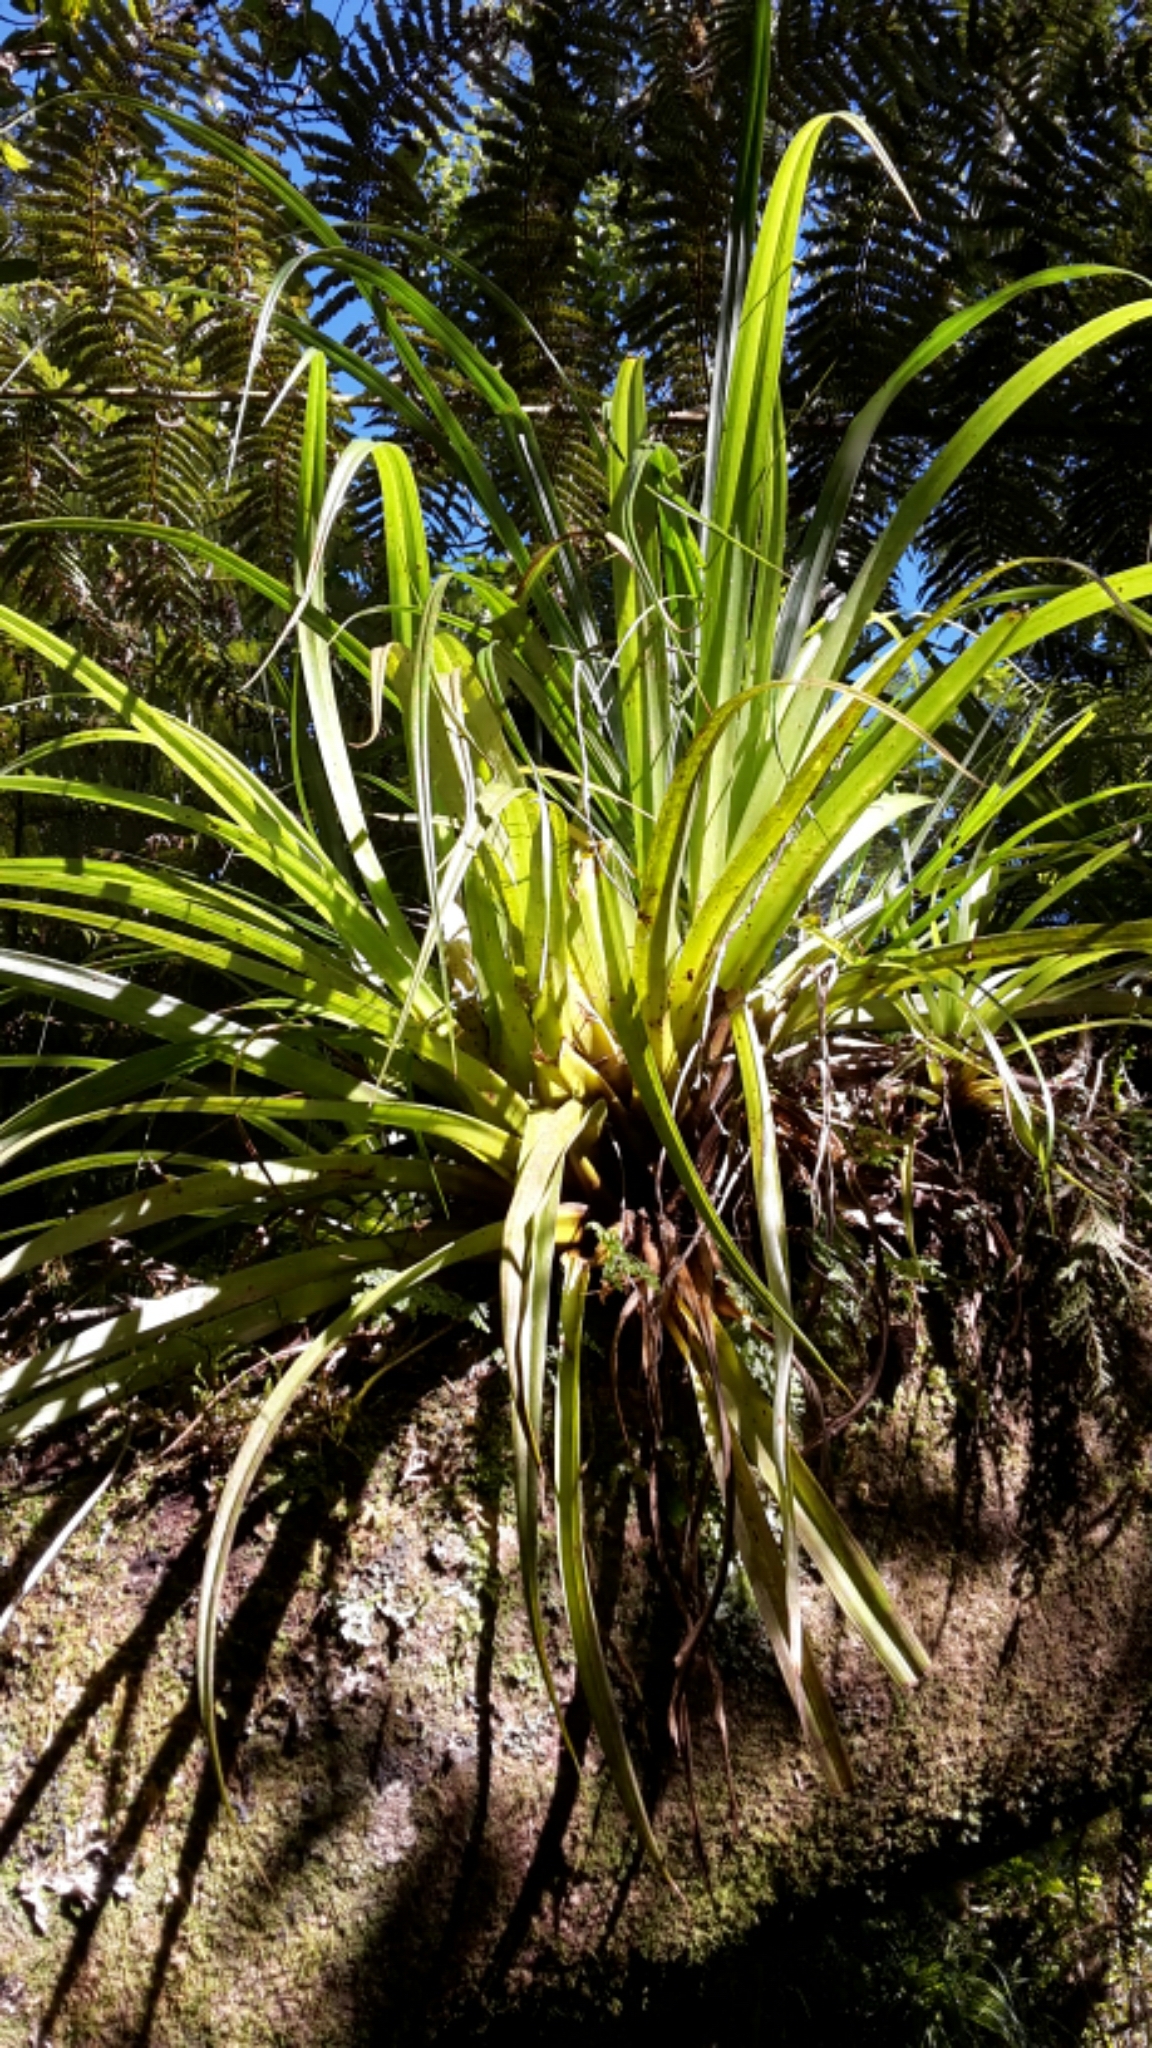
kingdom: Plantae
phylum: Tracheophyta
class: Liliopsida
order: Asparagales
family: Asteliaceae
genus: Astelia
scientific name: Astelia hastata
